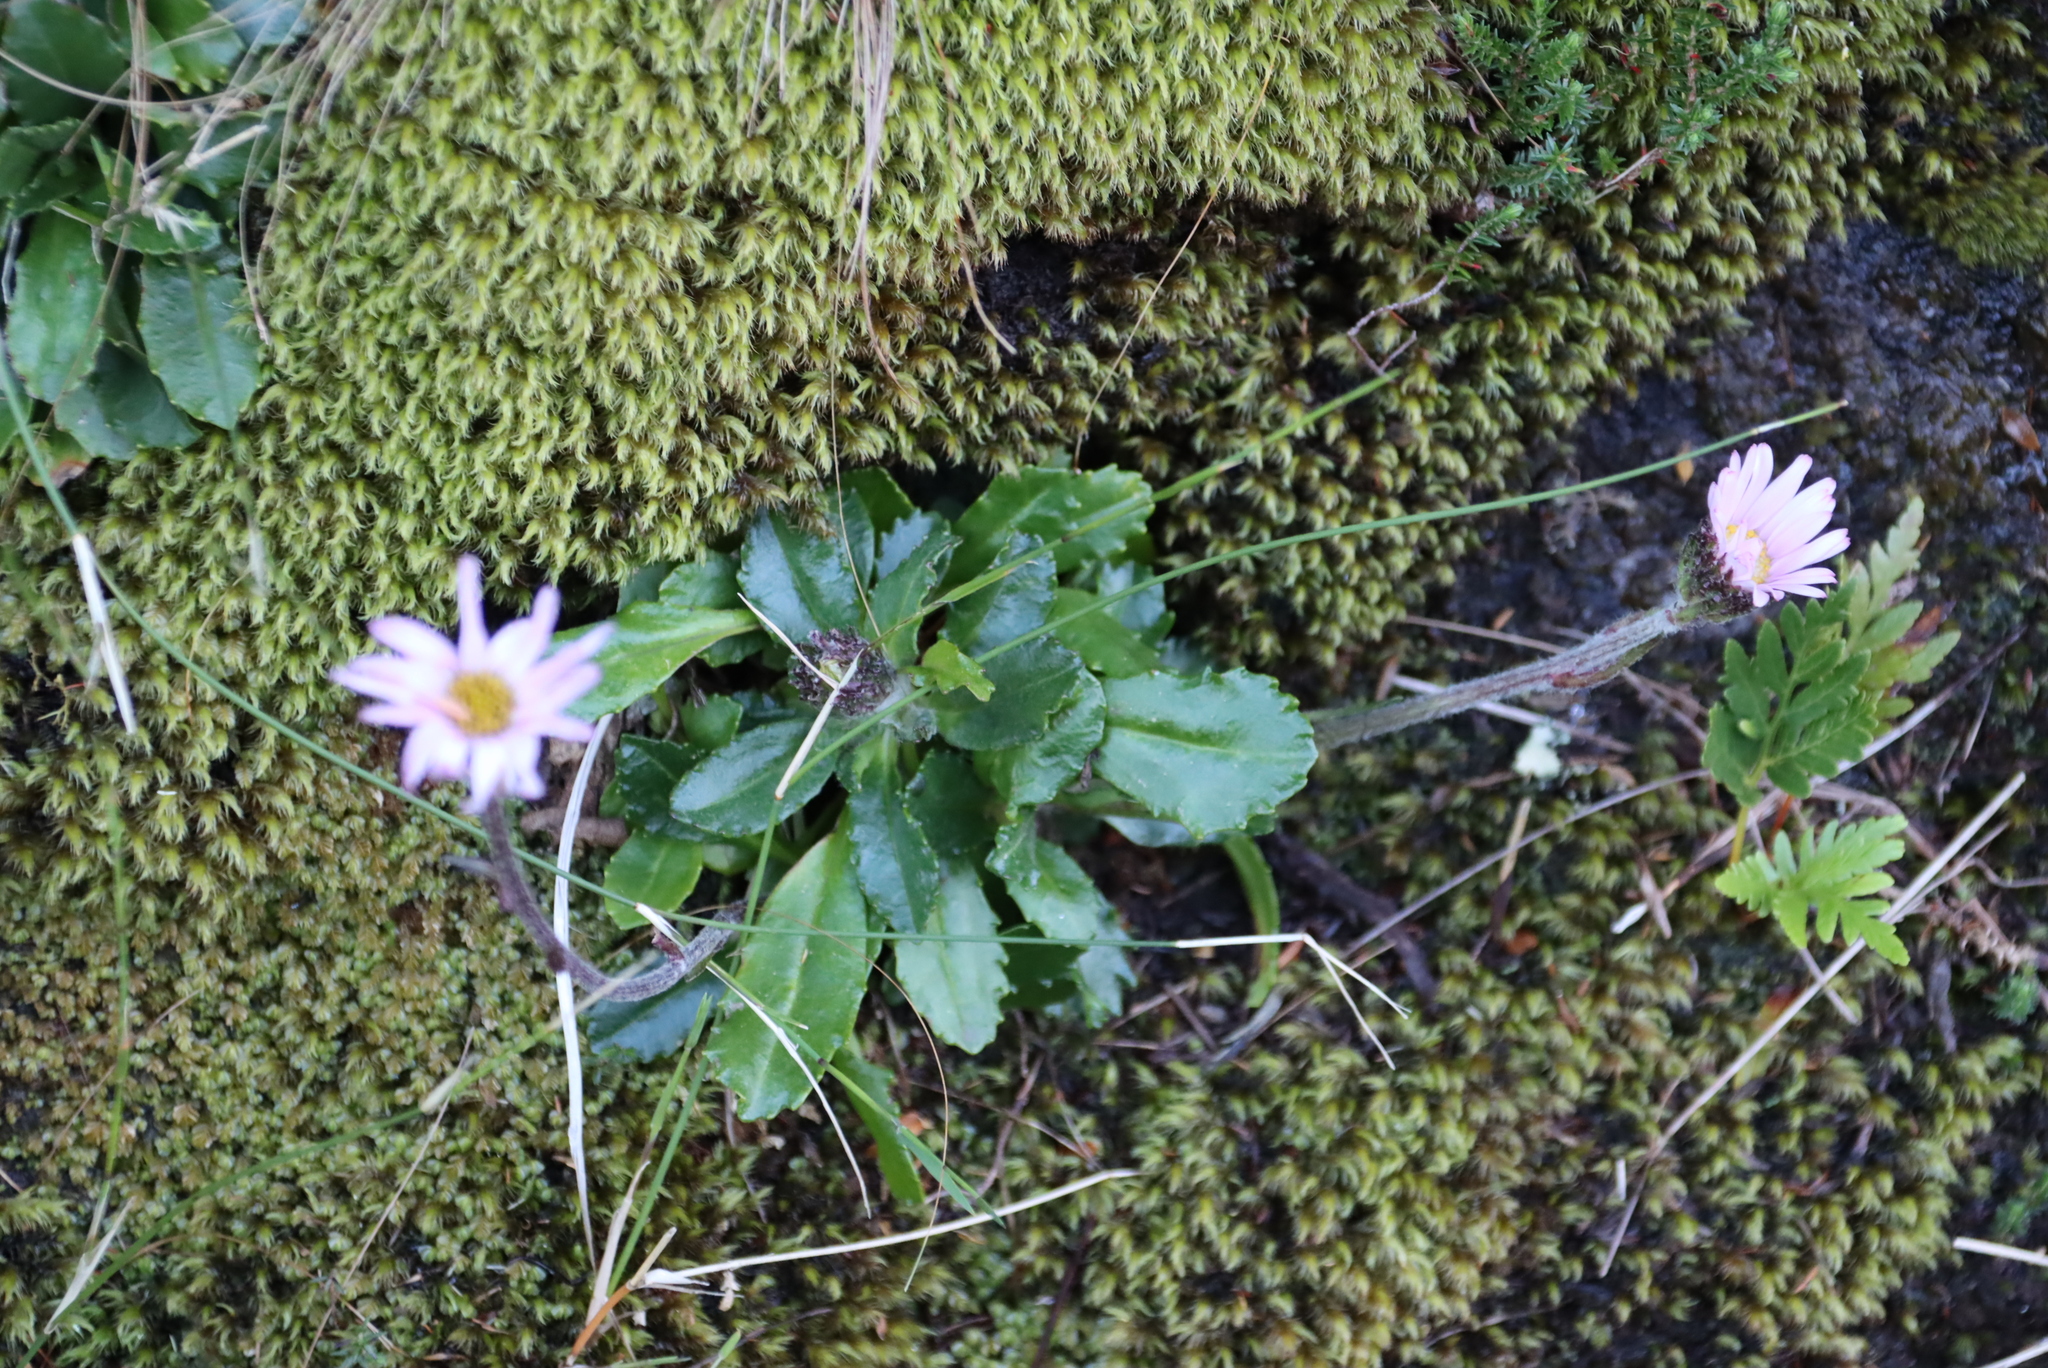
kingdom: Plantae
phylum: Tracheophyta
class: Magnoliopsida
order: Asterales
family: Asteraceae
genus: Zyrphelis
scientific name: Zyrphelis crenata
